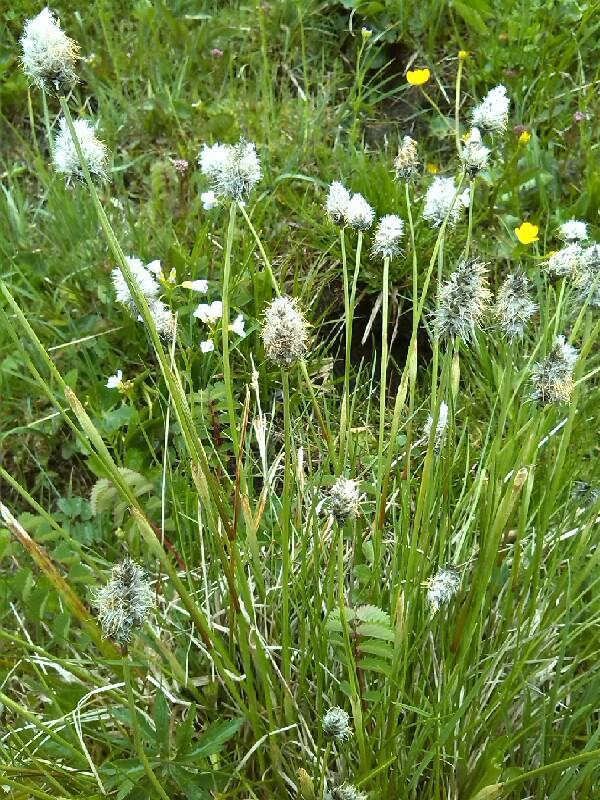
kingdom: Plantae
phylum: Tracheophyta
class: Liliopsida
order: Poales
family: Cyperaceae
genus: Eriophorum
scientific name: Eriophorum vaginatum
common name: Hare's-tail cottongrass
